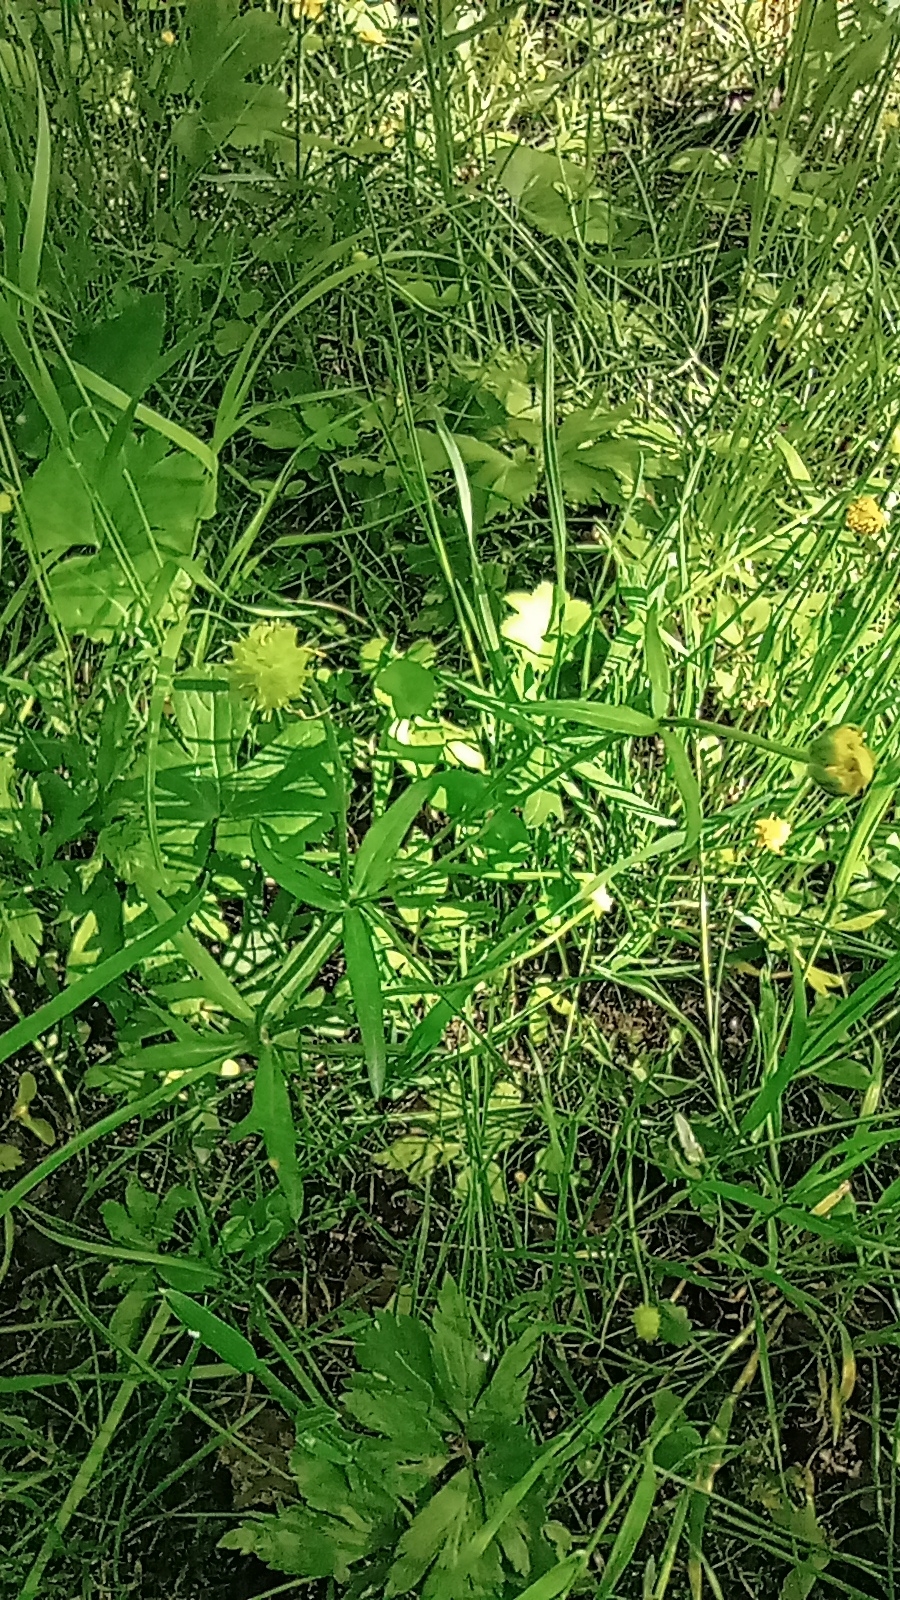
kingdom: Plantae
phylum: Tracheophyta
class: Magnoliopsida
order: Ranunculales
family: Ranunculaceae
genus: Ranunculus
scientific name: Ranunculus auricomus
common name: Goldilocks buttercup
